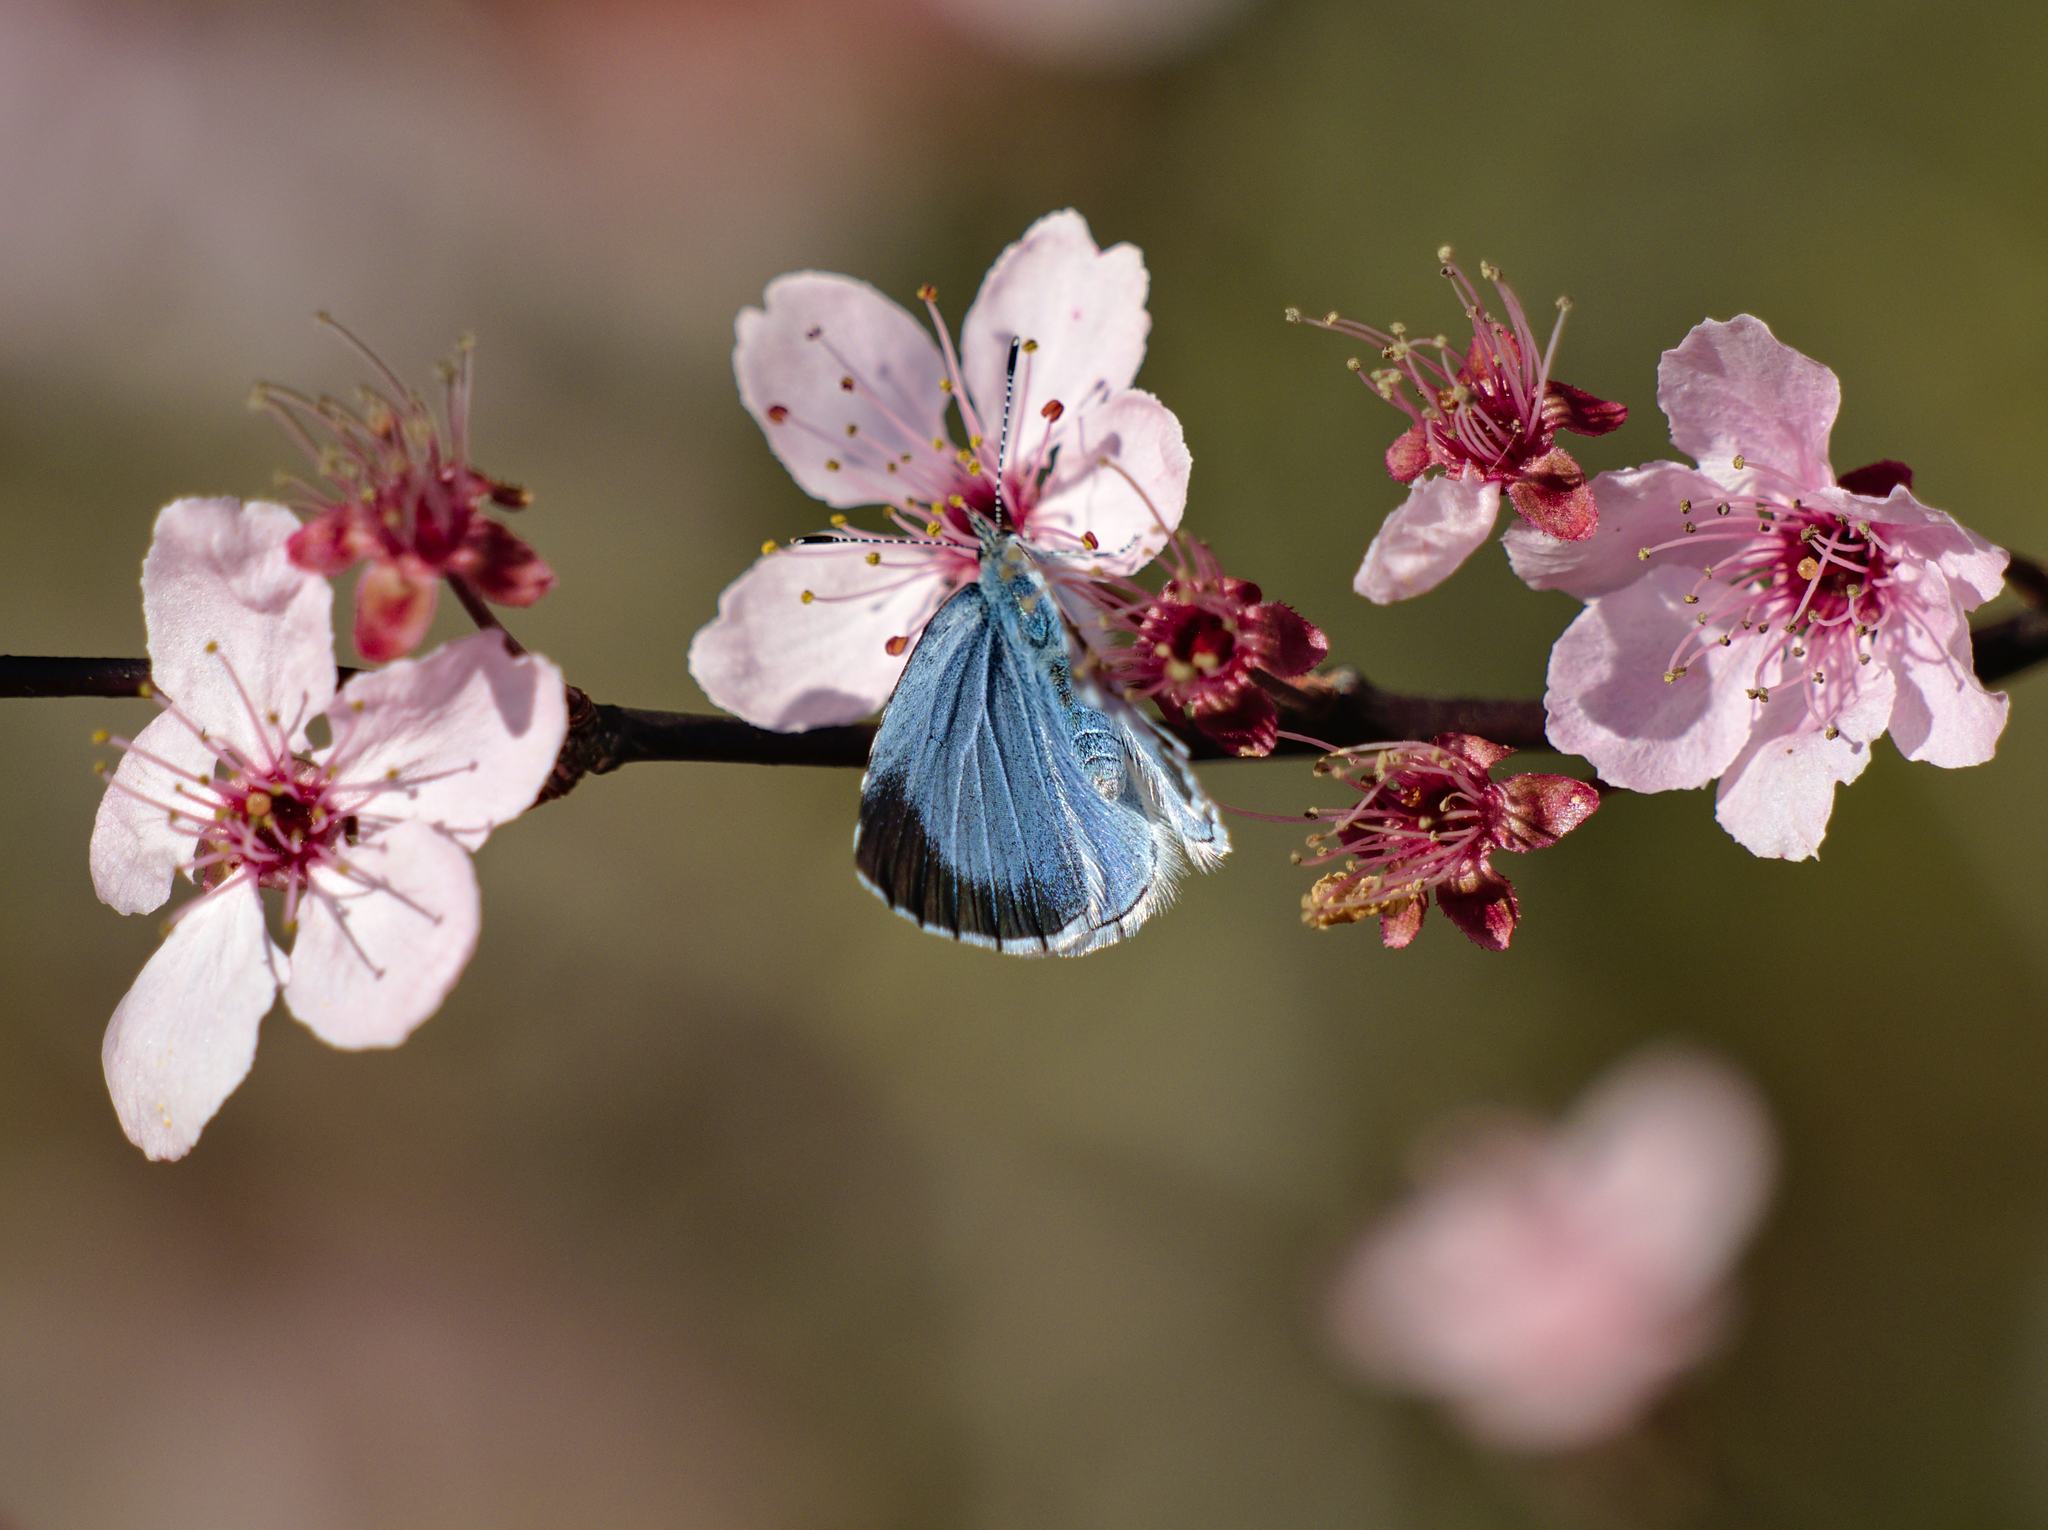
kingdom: Animalia
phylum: Arthropoda
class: Insecta
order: Lepidoptera
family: Lycaenidae
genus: Celastrina
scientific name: Celastrina argiolus
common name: Holly blue
